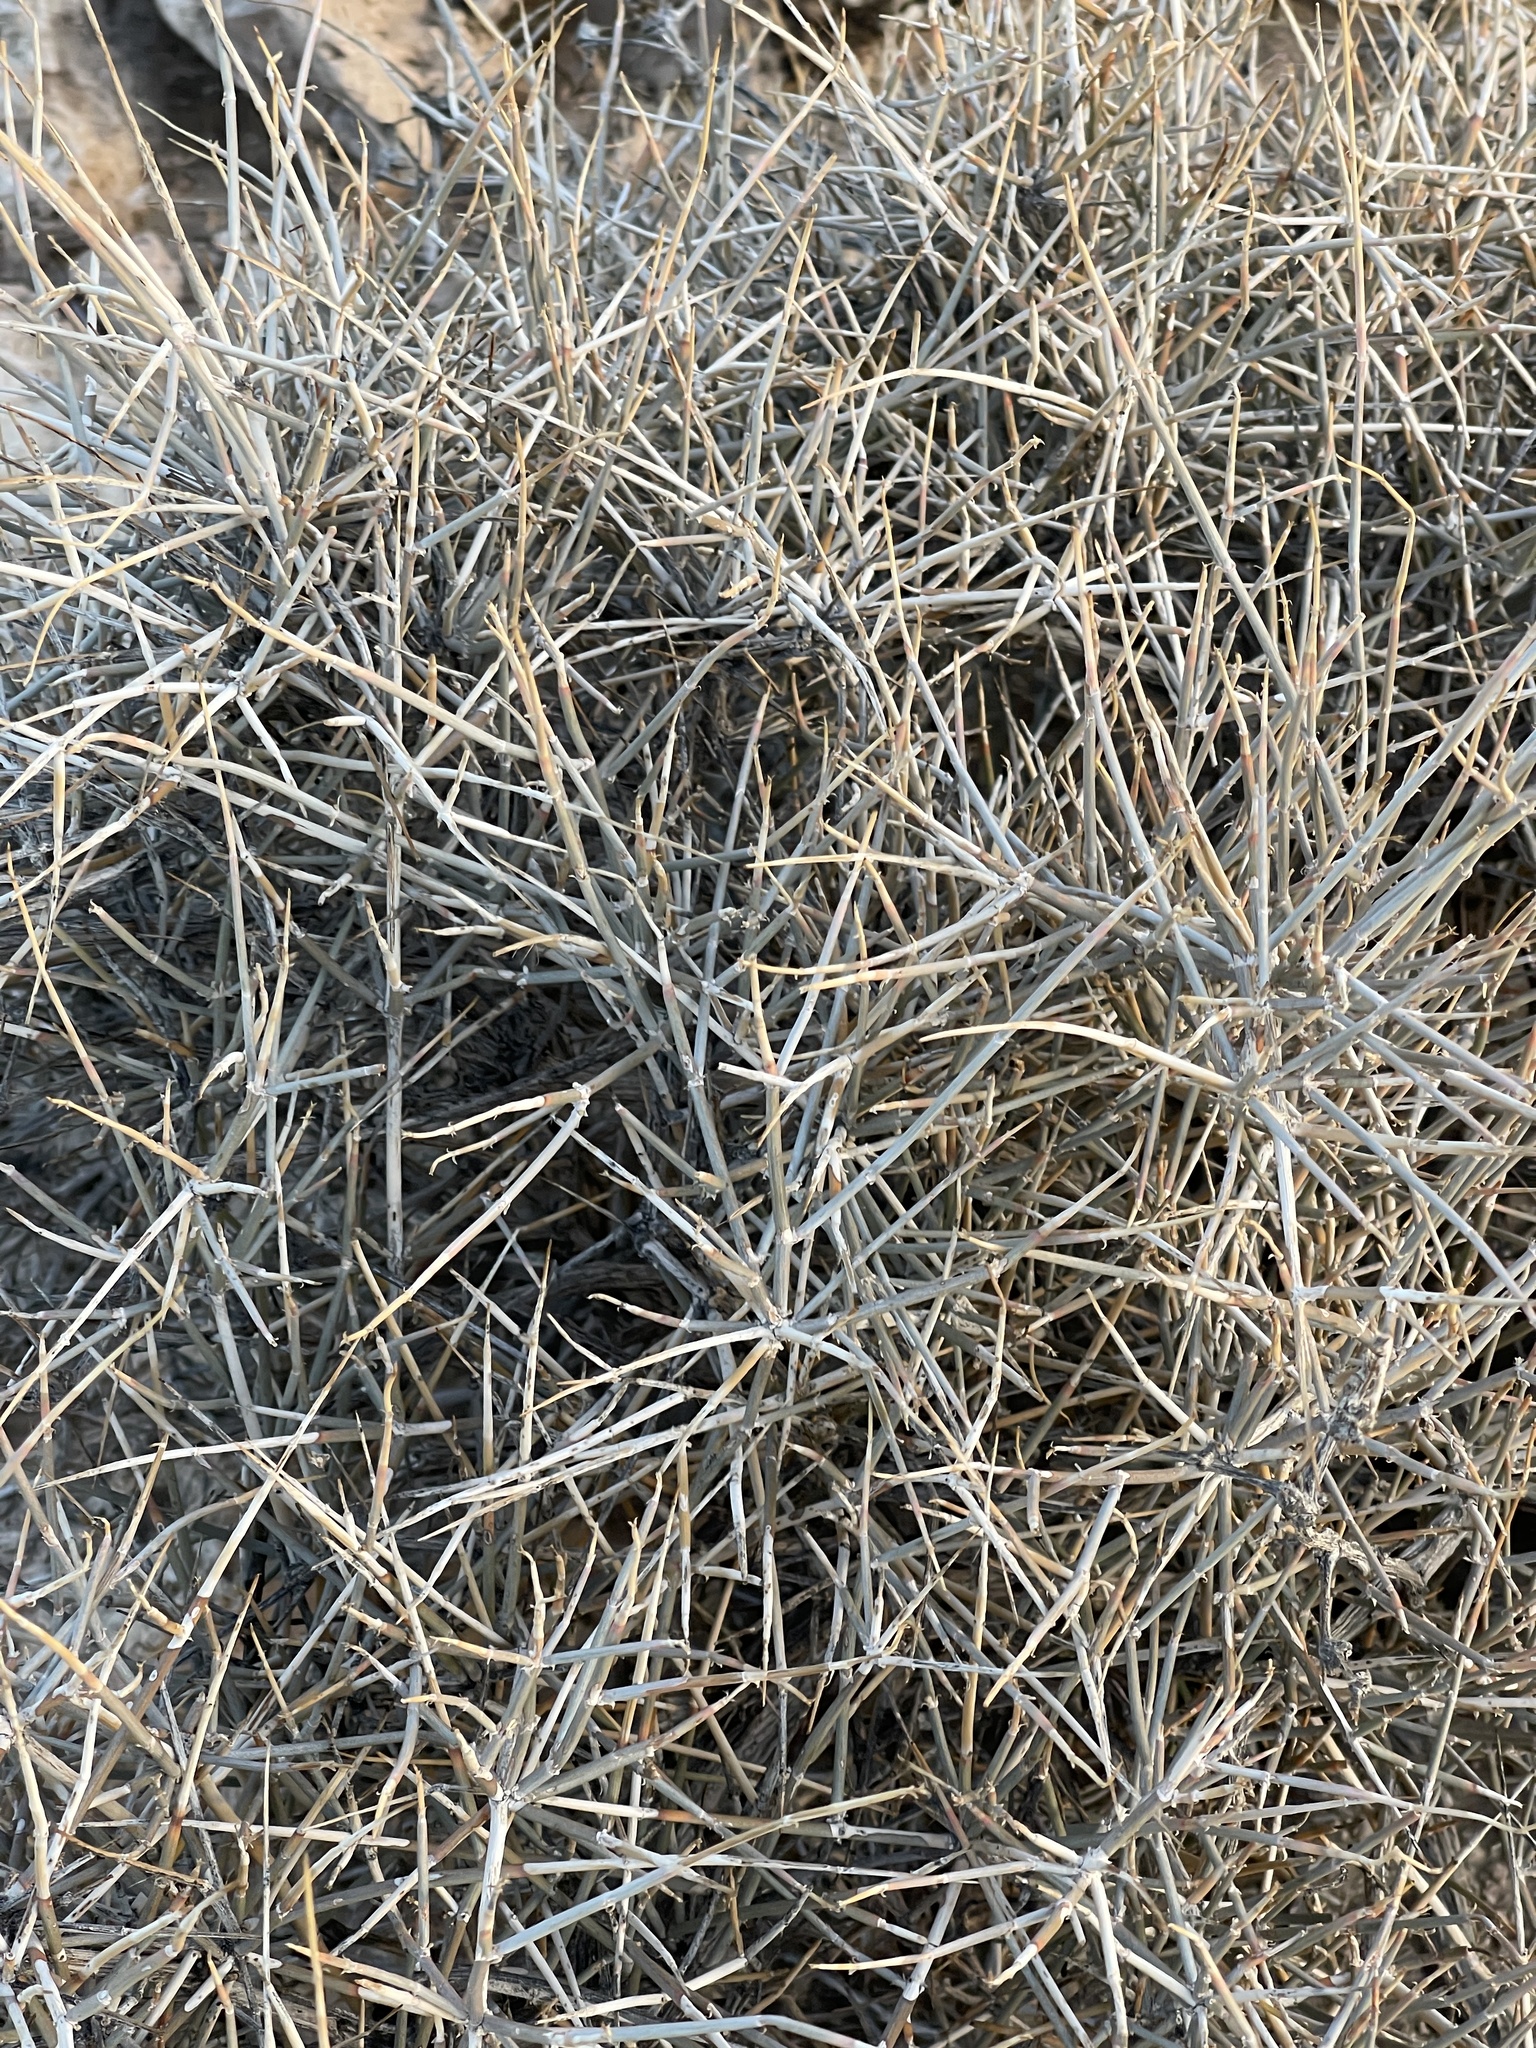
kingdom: Plantae
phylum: Tracheophyta
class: Gnetopsida
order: Ephedrales
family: Ephedraceae
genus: Ephedra
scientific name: Ephedra nevadensis
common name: Gray ephedra
